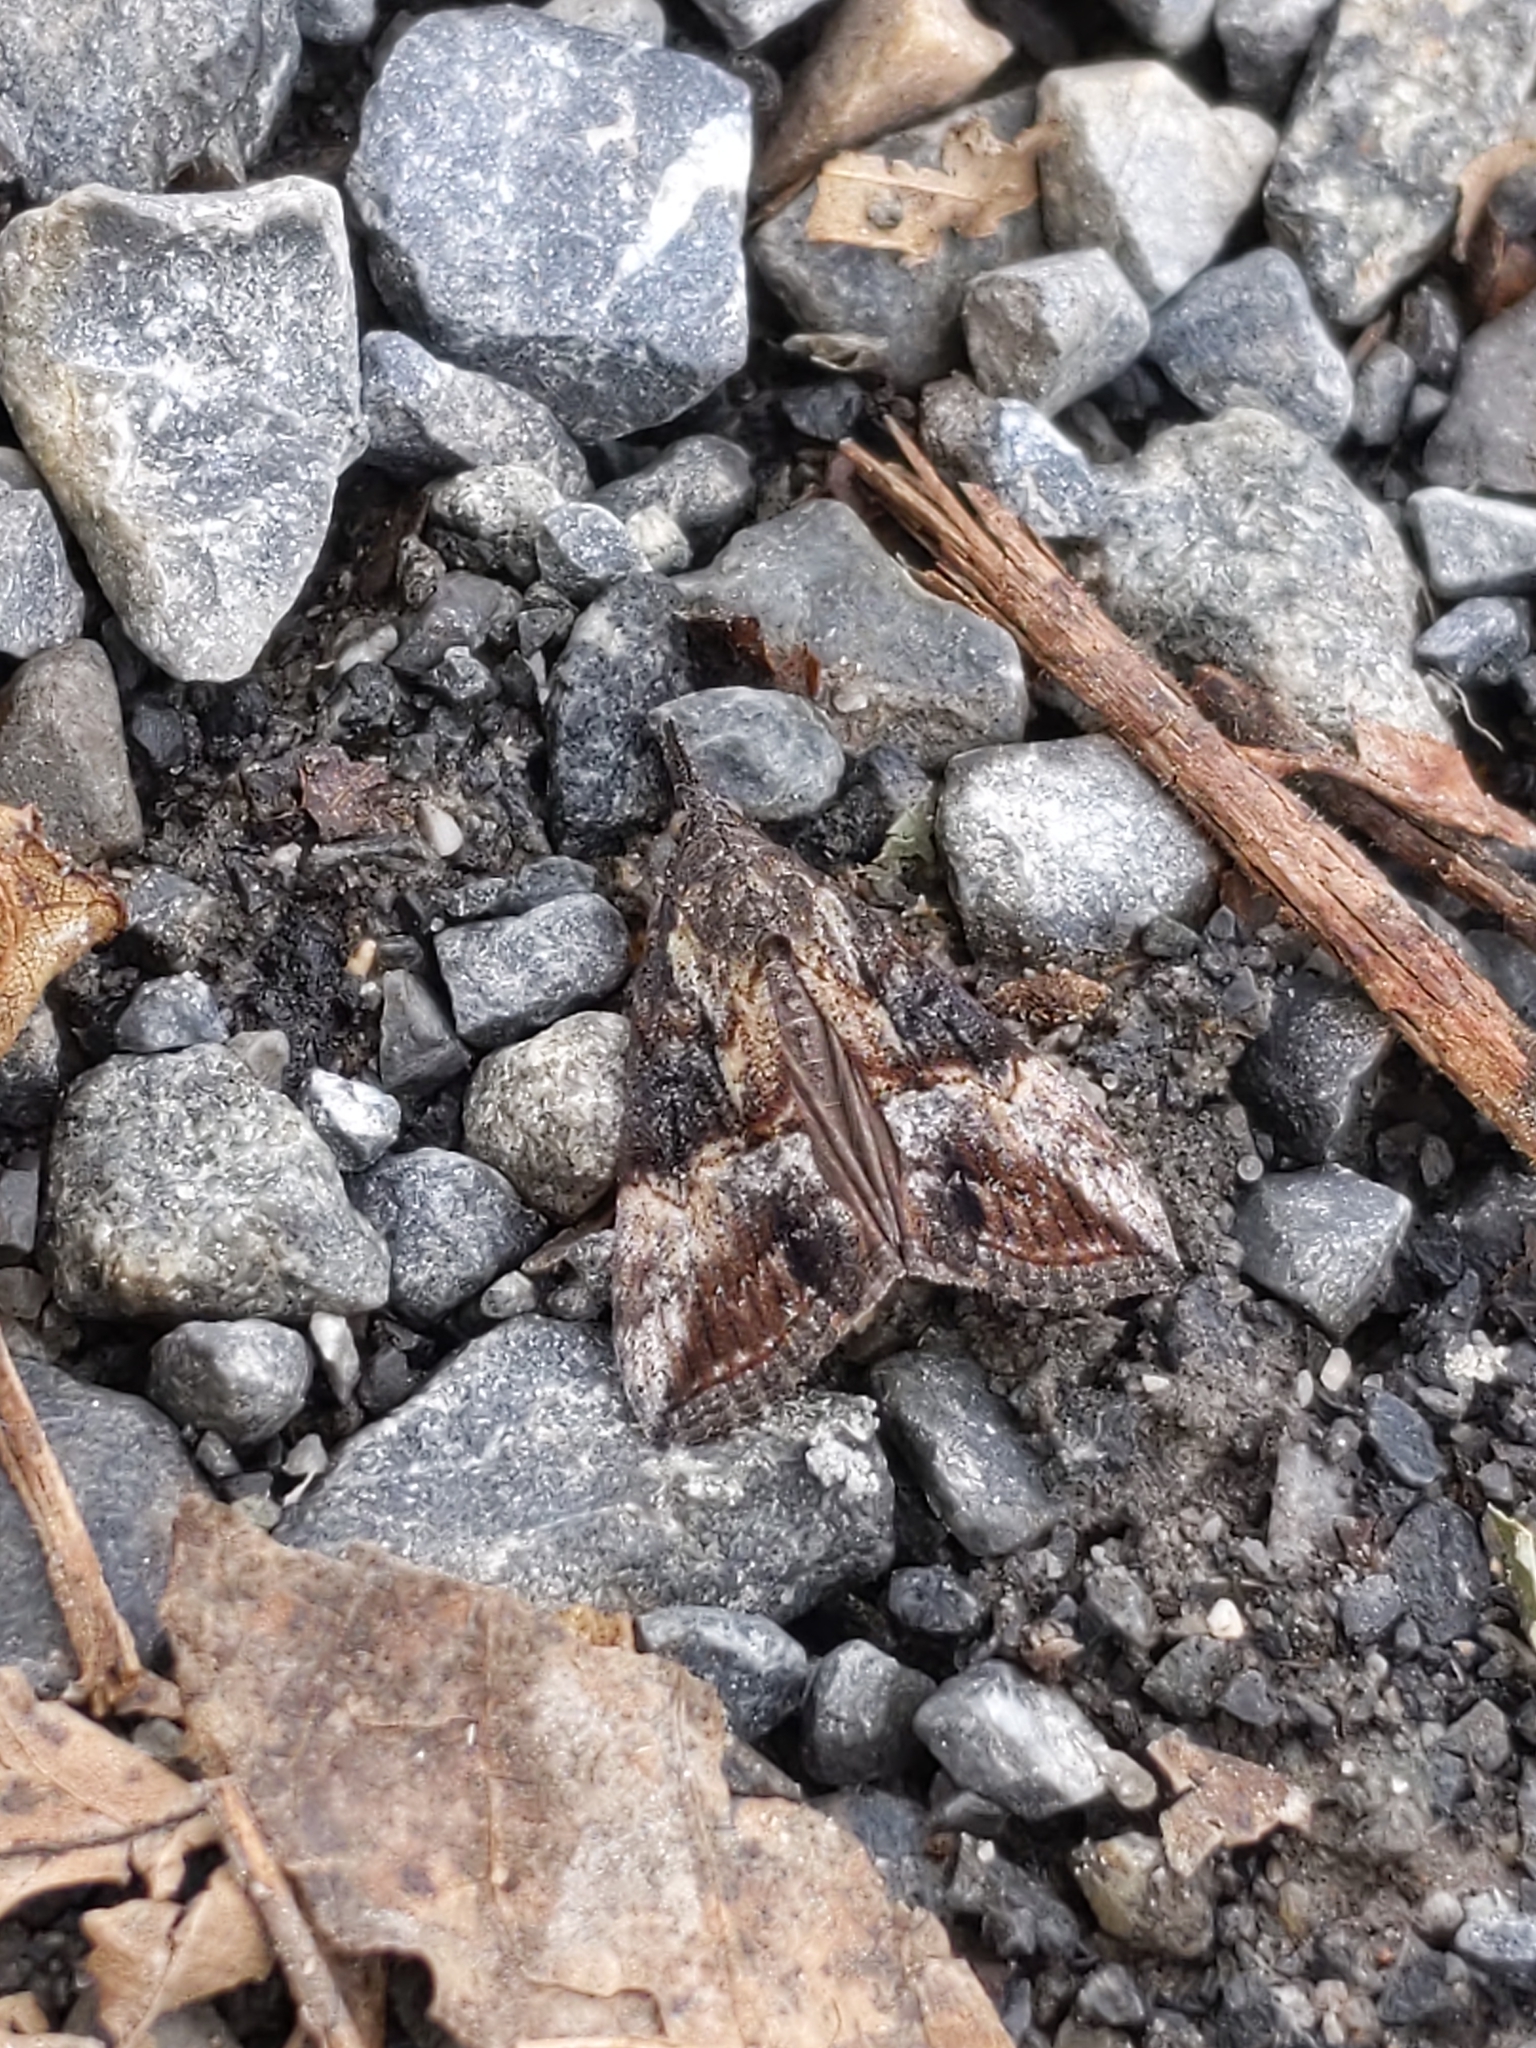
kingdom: Animalia
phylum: Arthropoda
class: Insecta
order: Lepidoptera
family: Erebidae
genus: Hypena
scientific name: Hypena scabra
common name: Green cloverworm
